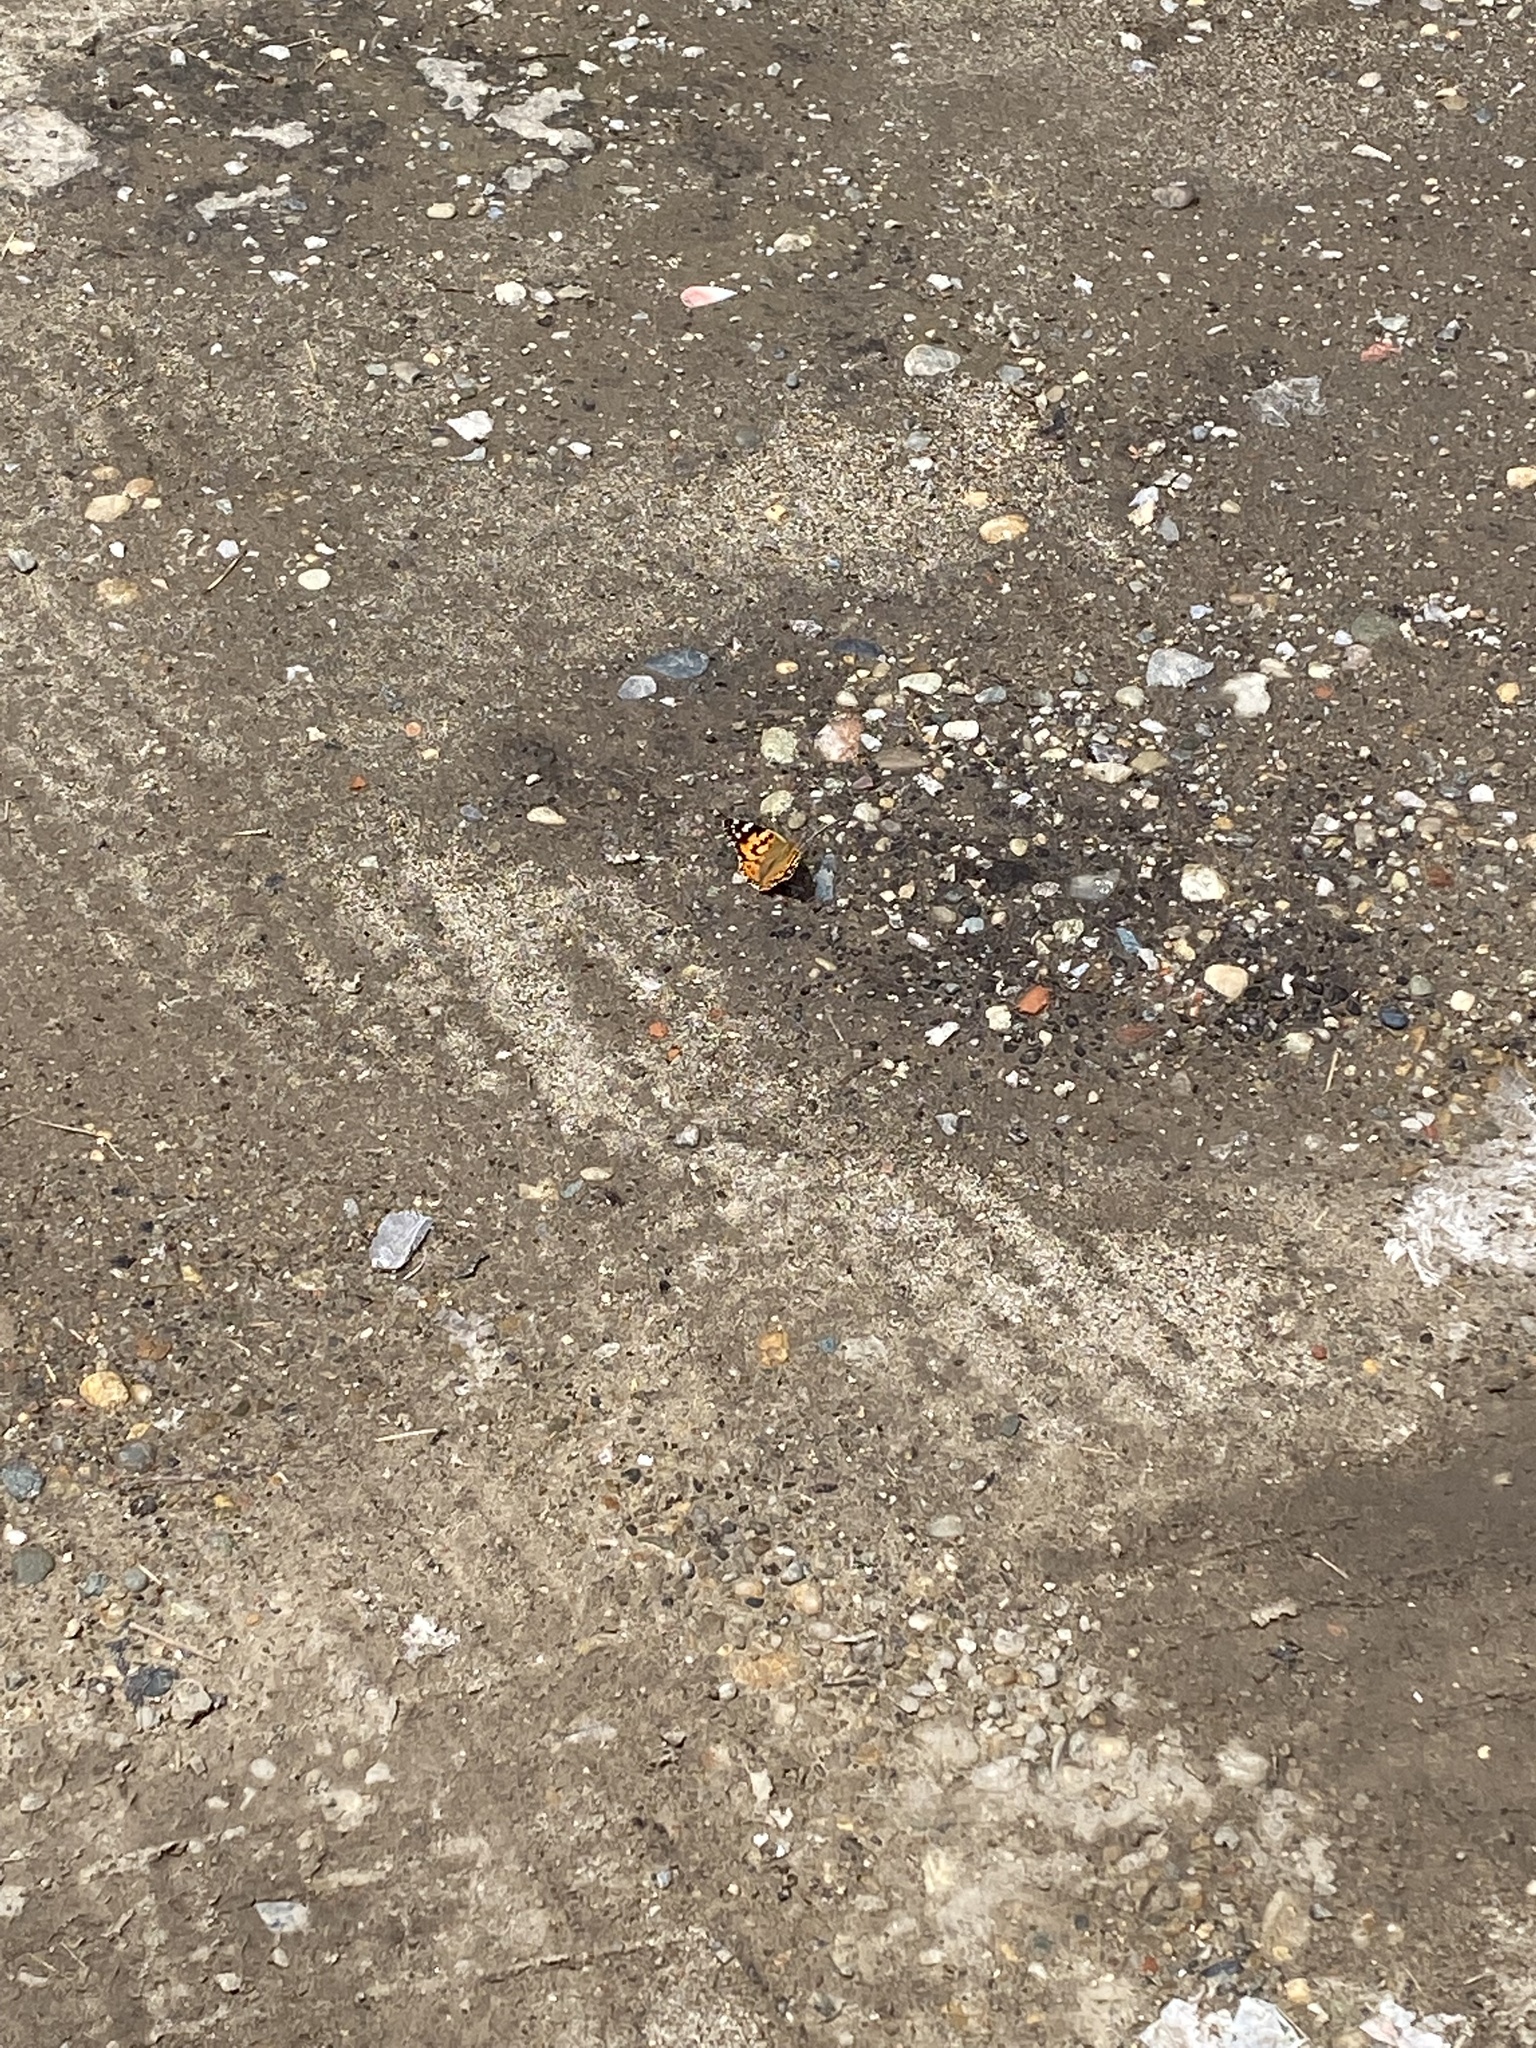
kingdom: Animalia
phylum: Arthropoda
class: Insecta
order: Lepidoptera
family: Nymphalidae
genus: Vanessa
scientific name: Vanessa cardui
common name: Painted lady
